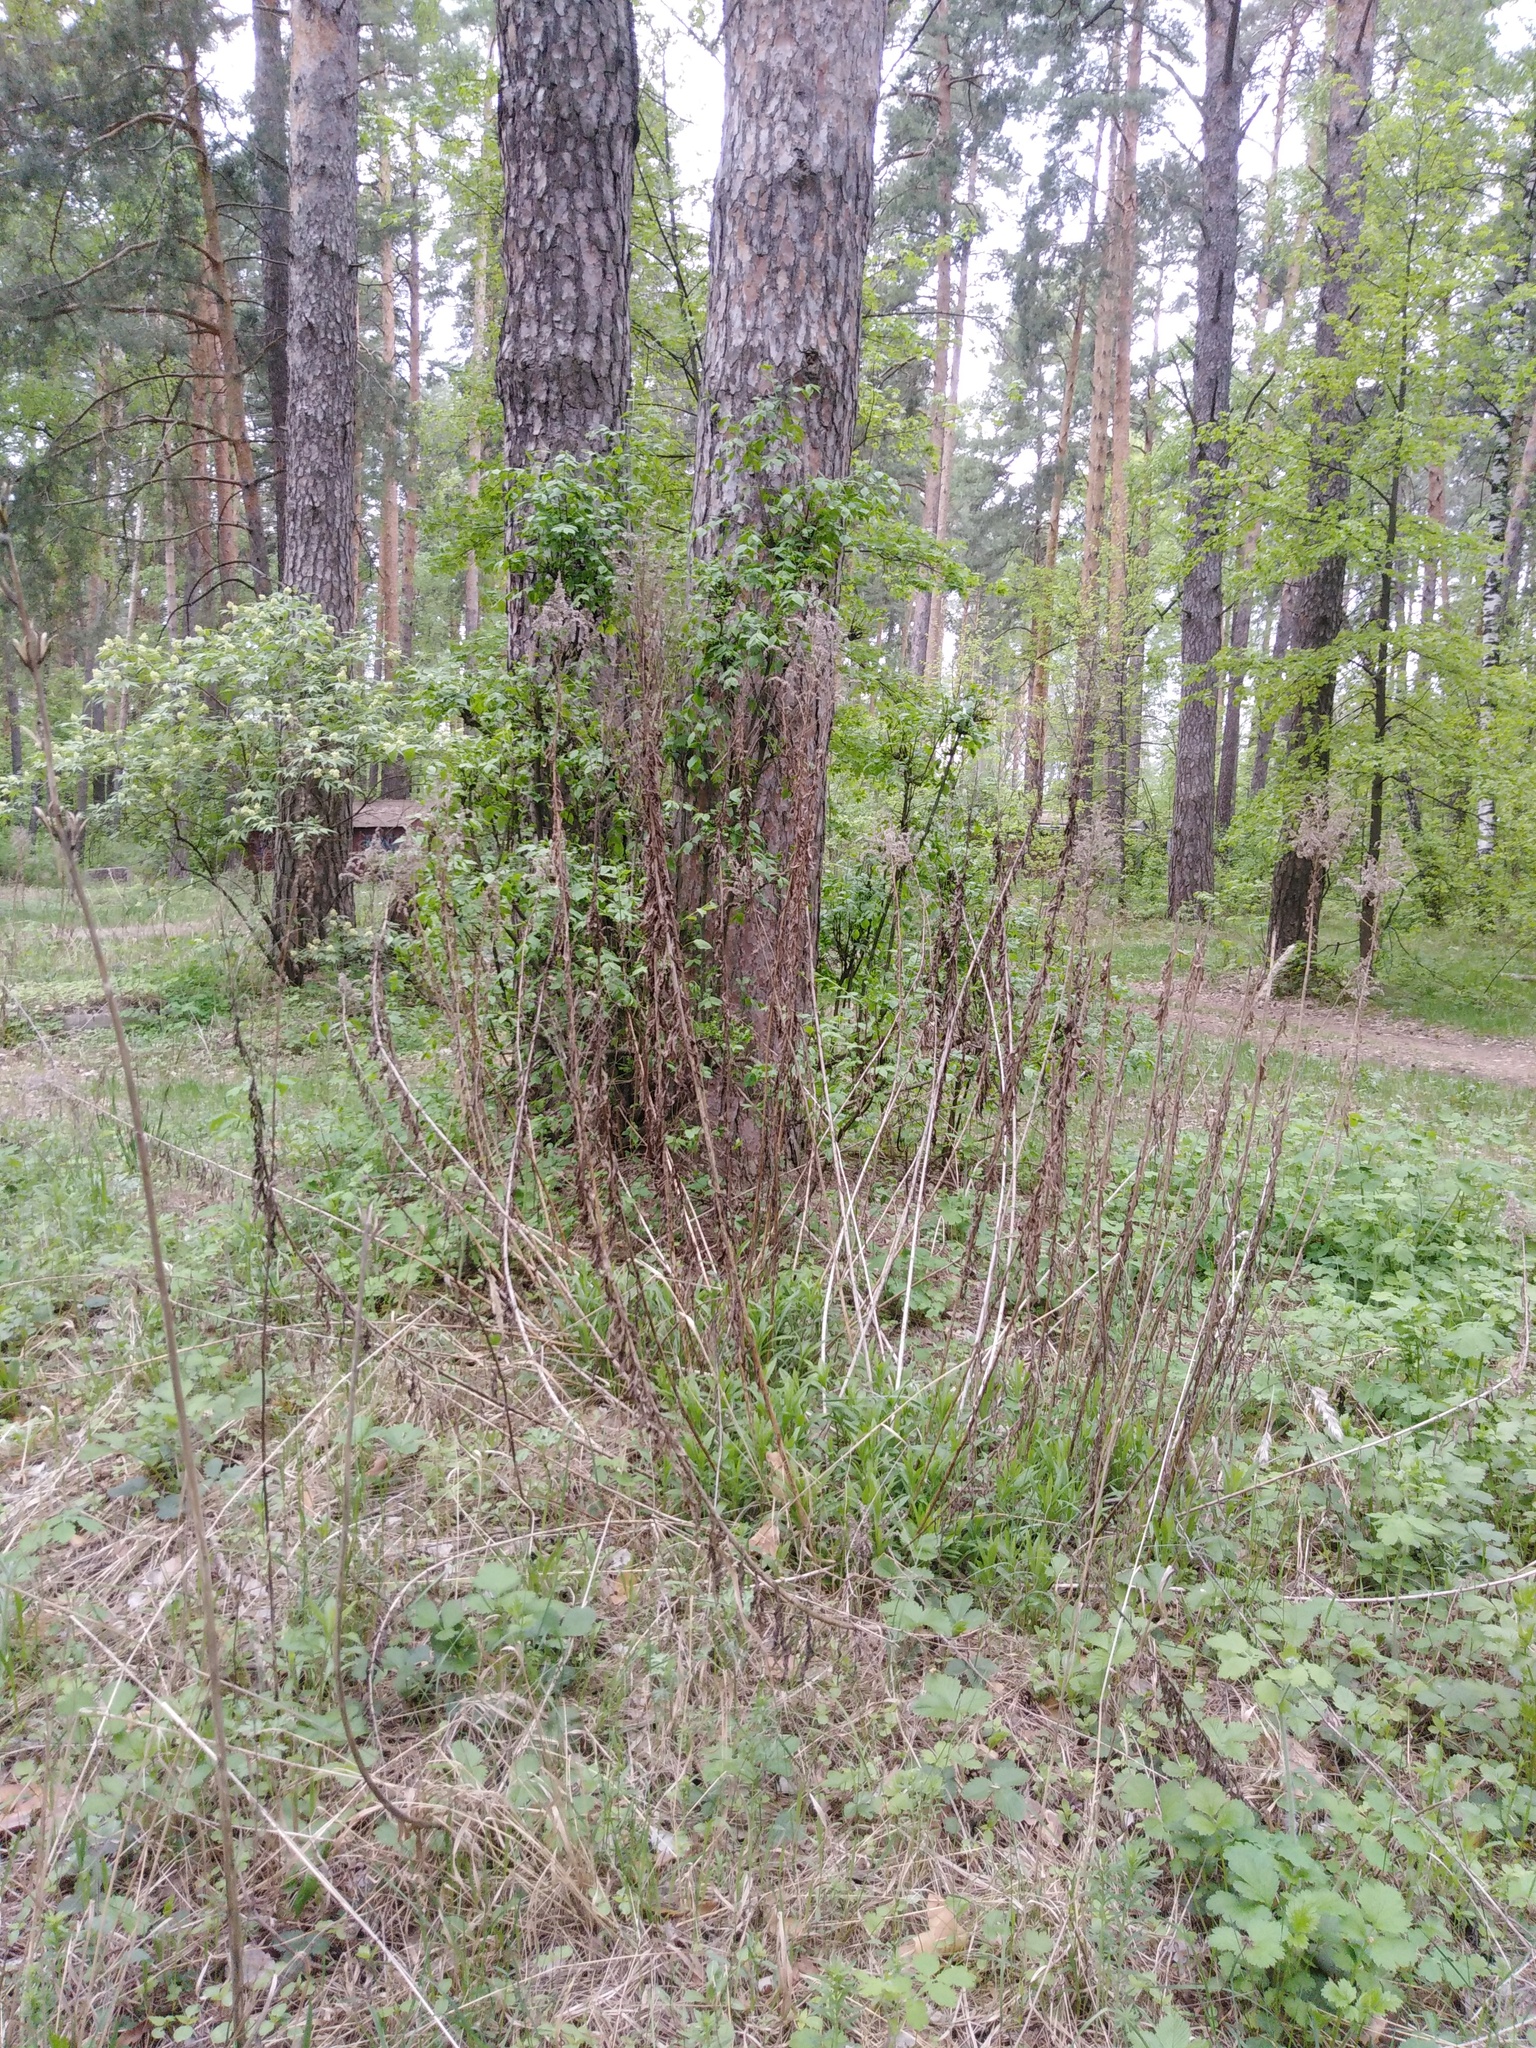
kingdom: Plantae
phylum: Tracheophyta
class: Magnoliopsida
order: Asterales
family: Asteraceae
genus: Solidago
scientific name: Solidago canadensis
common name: Canada goldenrod
